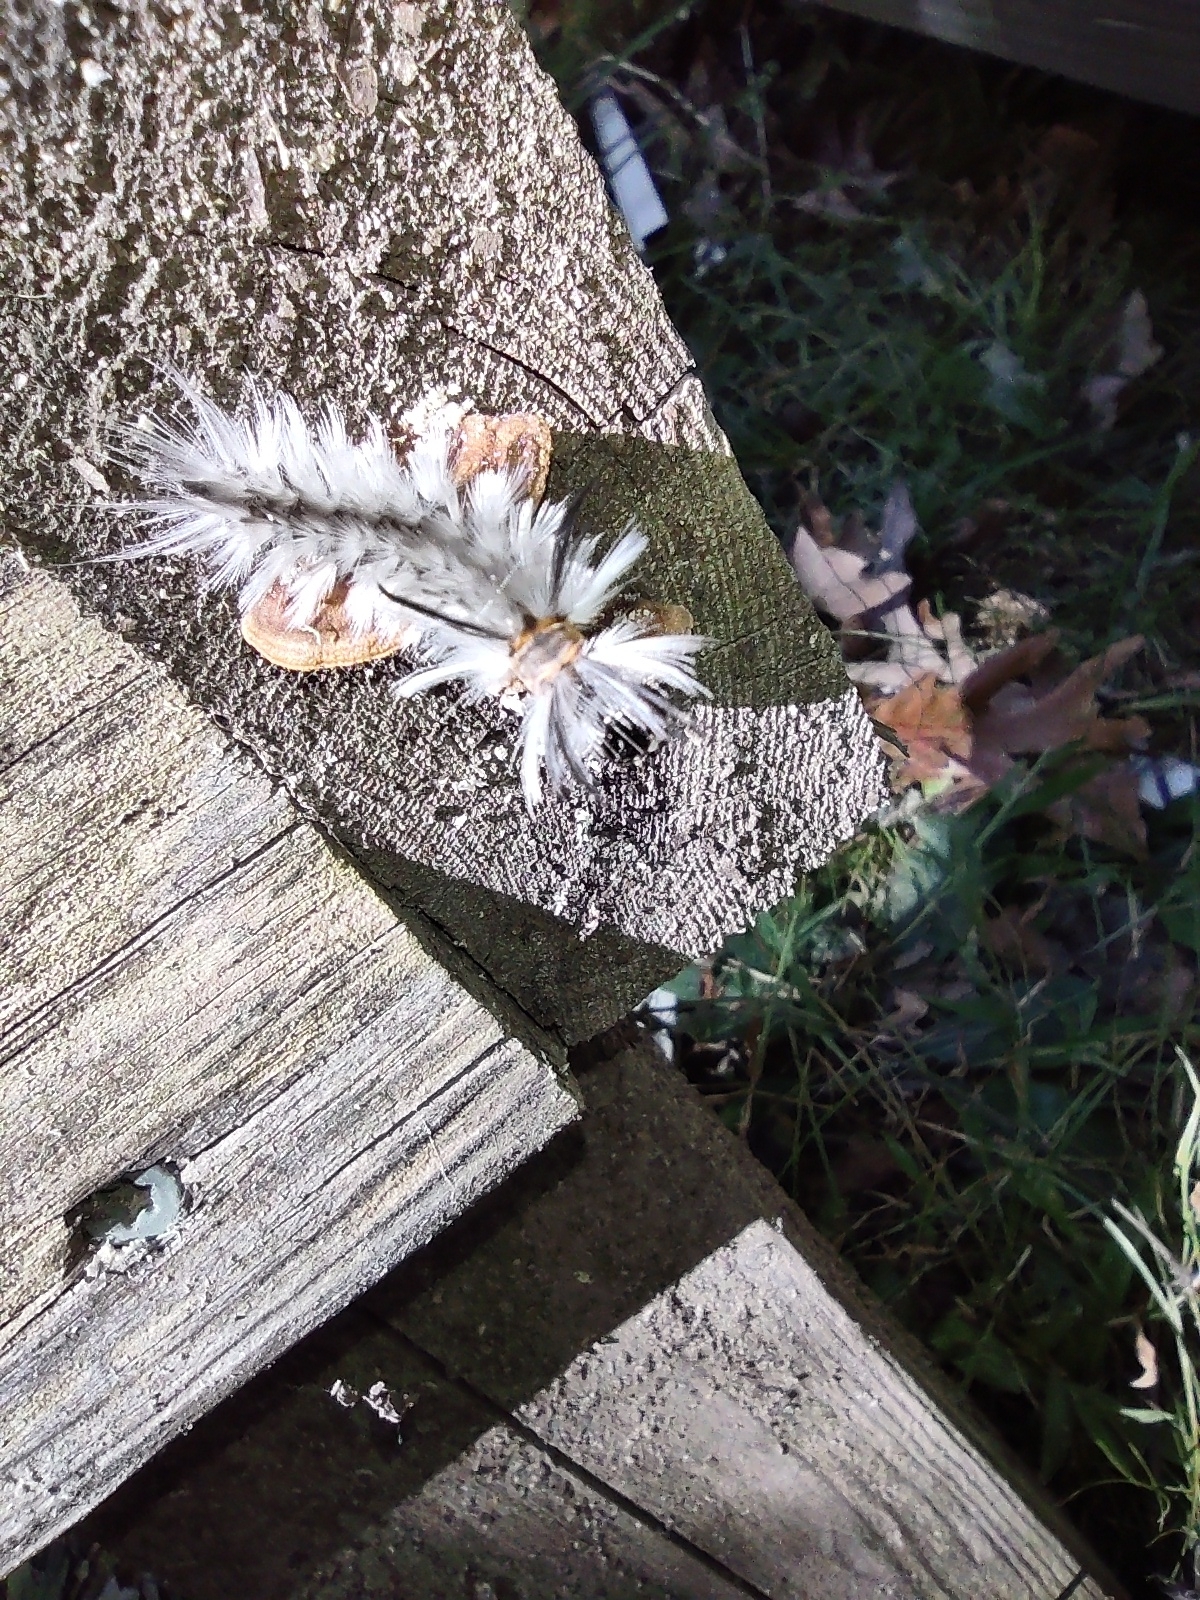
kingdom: Animalia
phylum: Arthropoda
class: Insecta
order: Lepidoptera
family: Erebidae
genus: Halysidota
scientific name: Halysidota tessellaris
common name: Banded tussock moth
